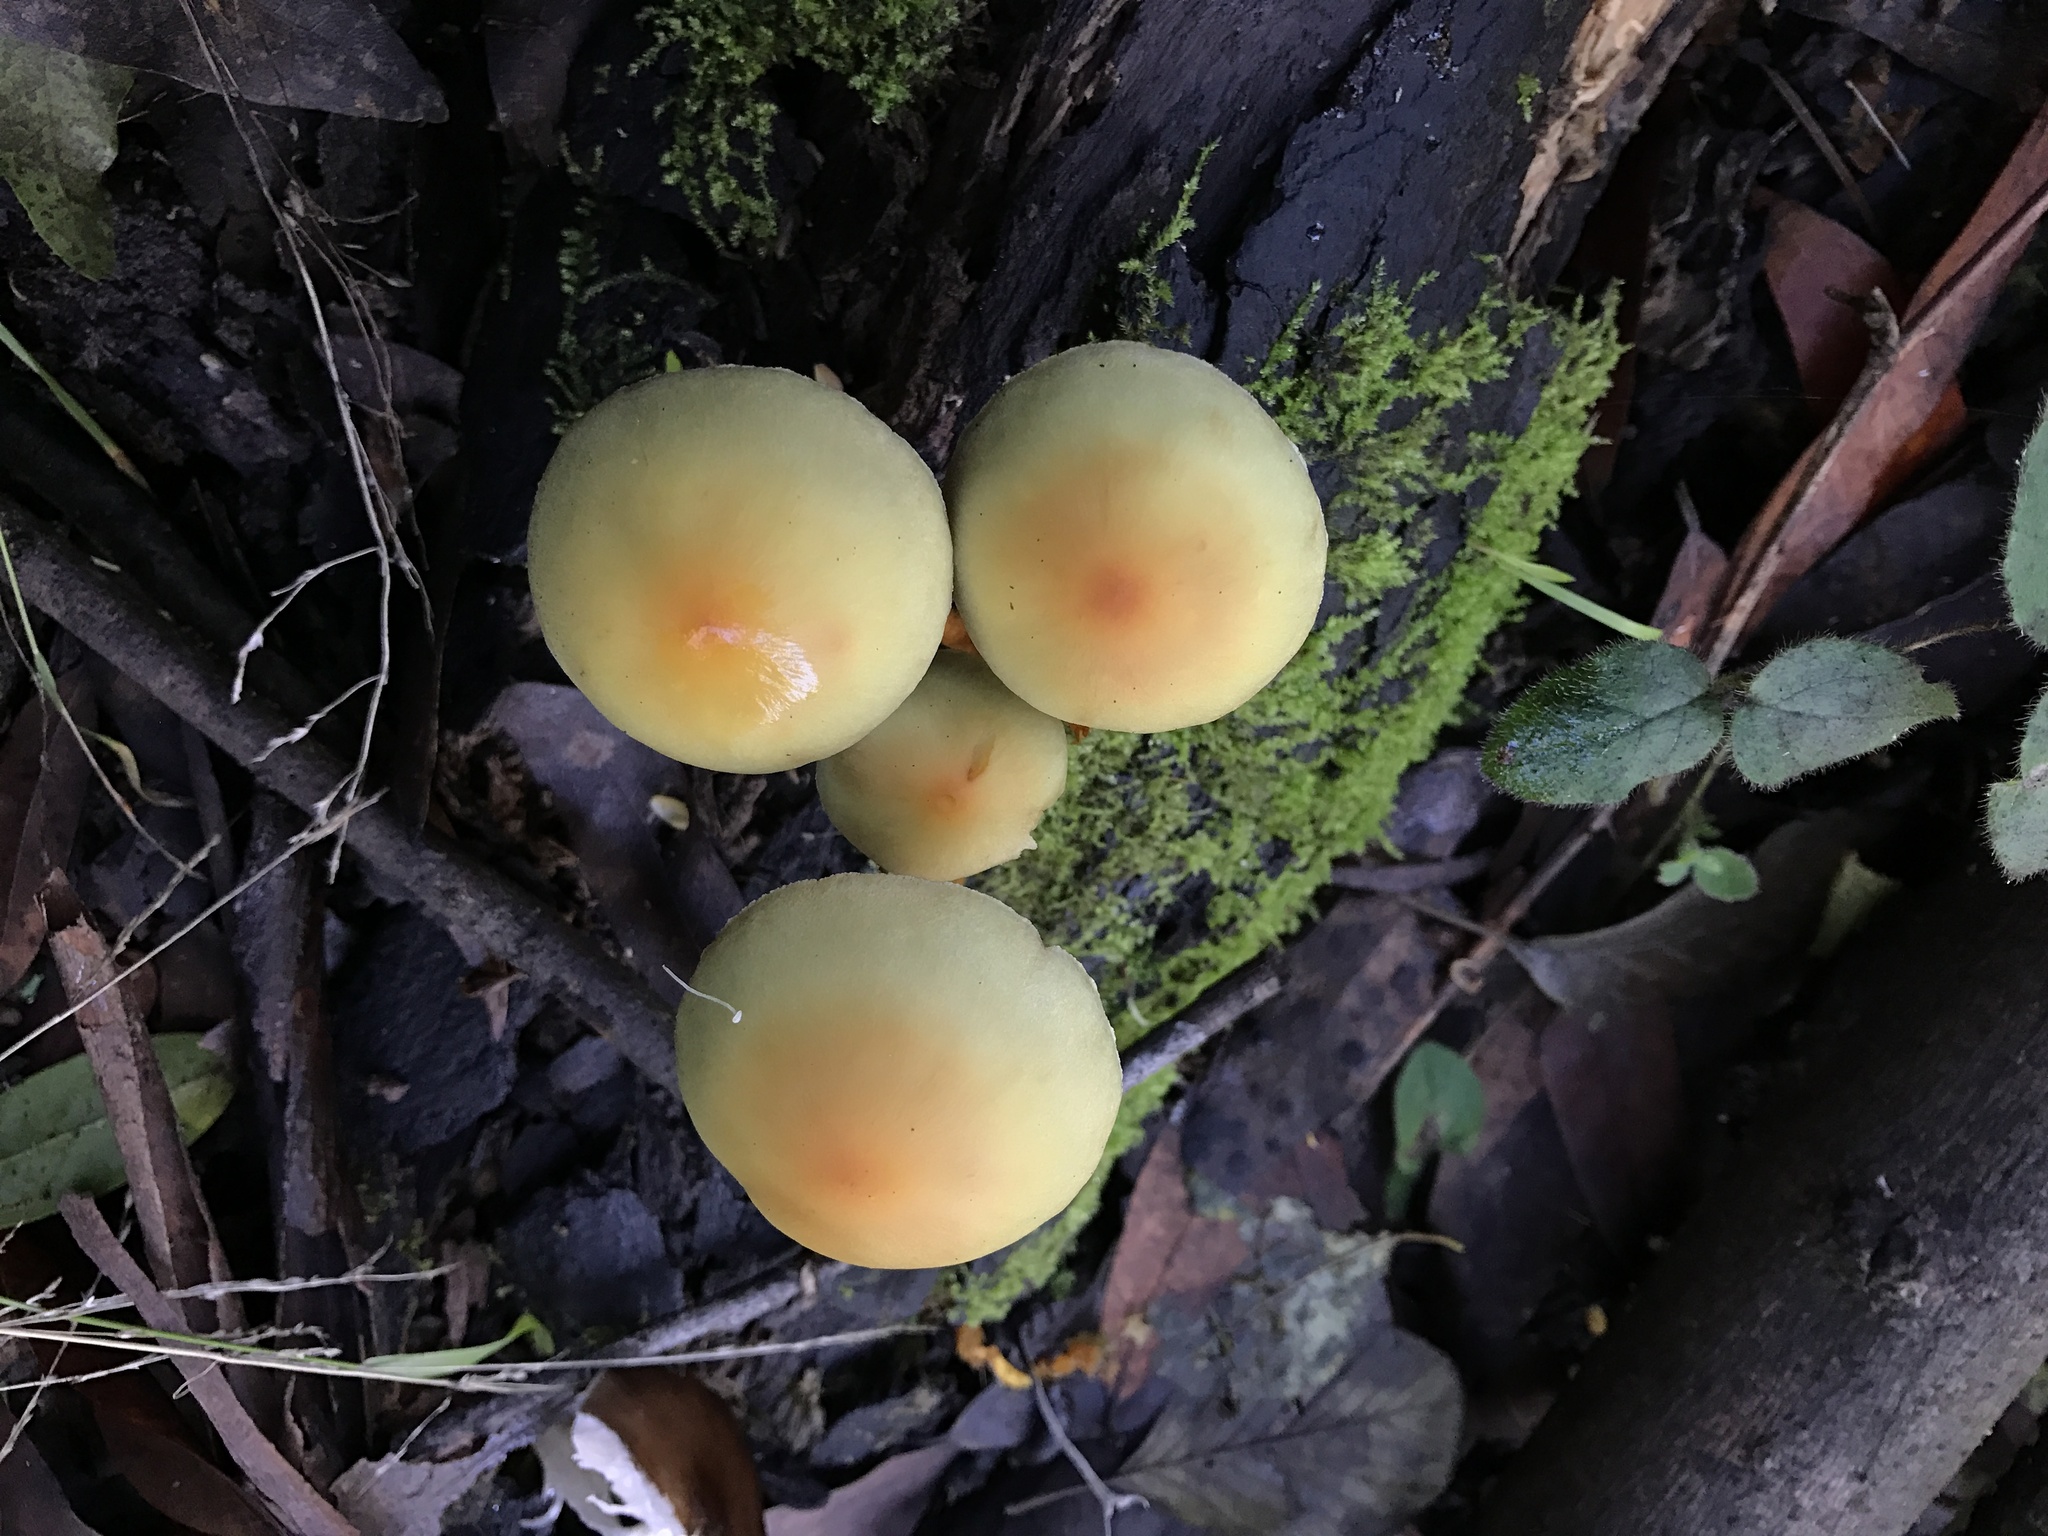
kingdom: Fungi
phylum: Basidiomycota
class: Agaricomycetes
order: Agaricales
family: Strophariaceae
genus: Hypholoma
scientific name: Hypholoma fasciculare
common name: Sulphur tuft
